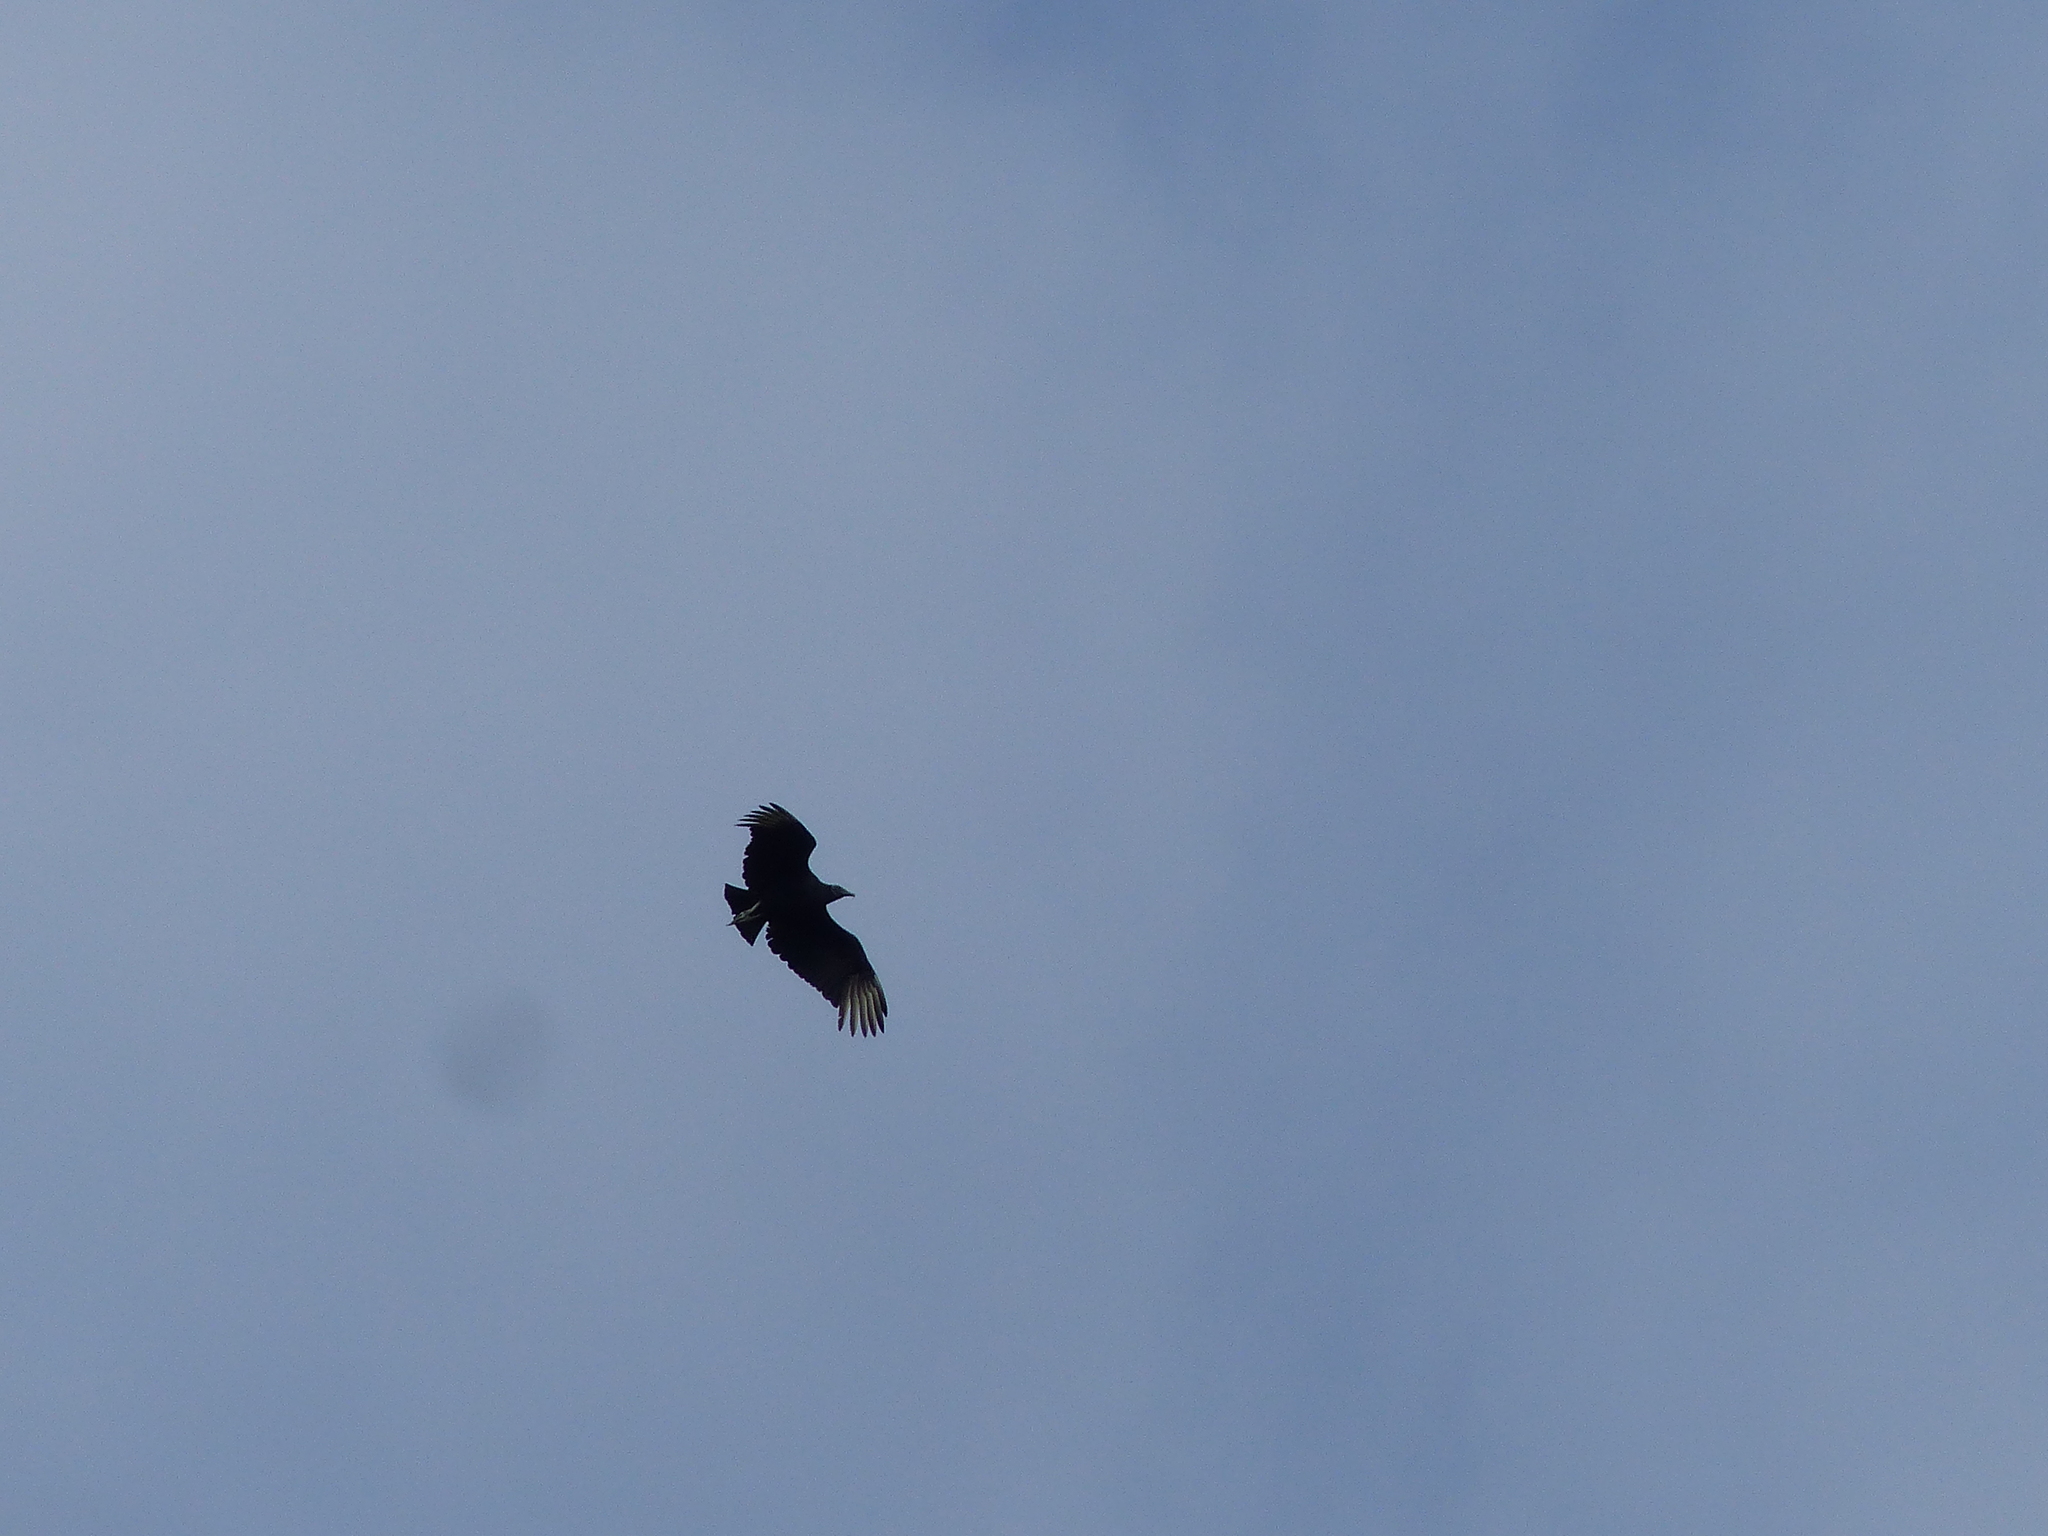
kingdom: Animalia
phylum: Chordata
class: Aves
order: Accipitriformes
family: Cathartidae
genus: Coragyps
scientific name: Coragyps atratus
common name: Black vulture
